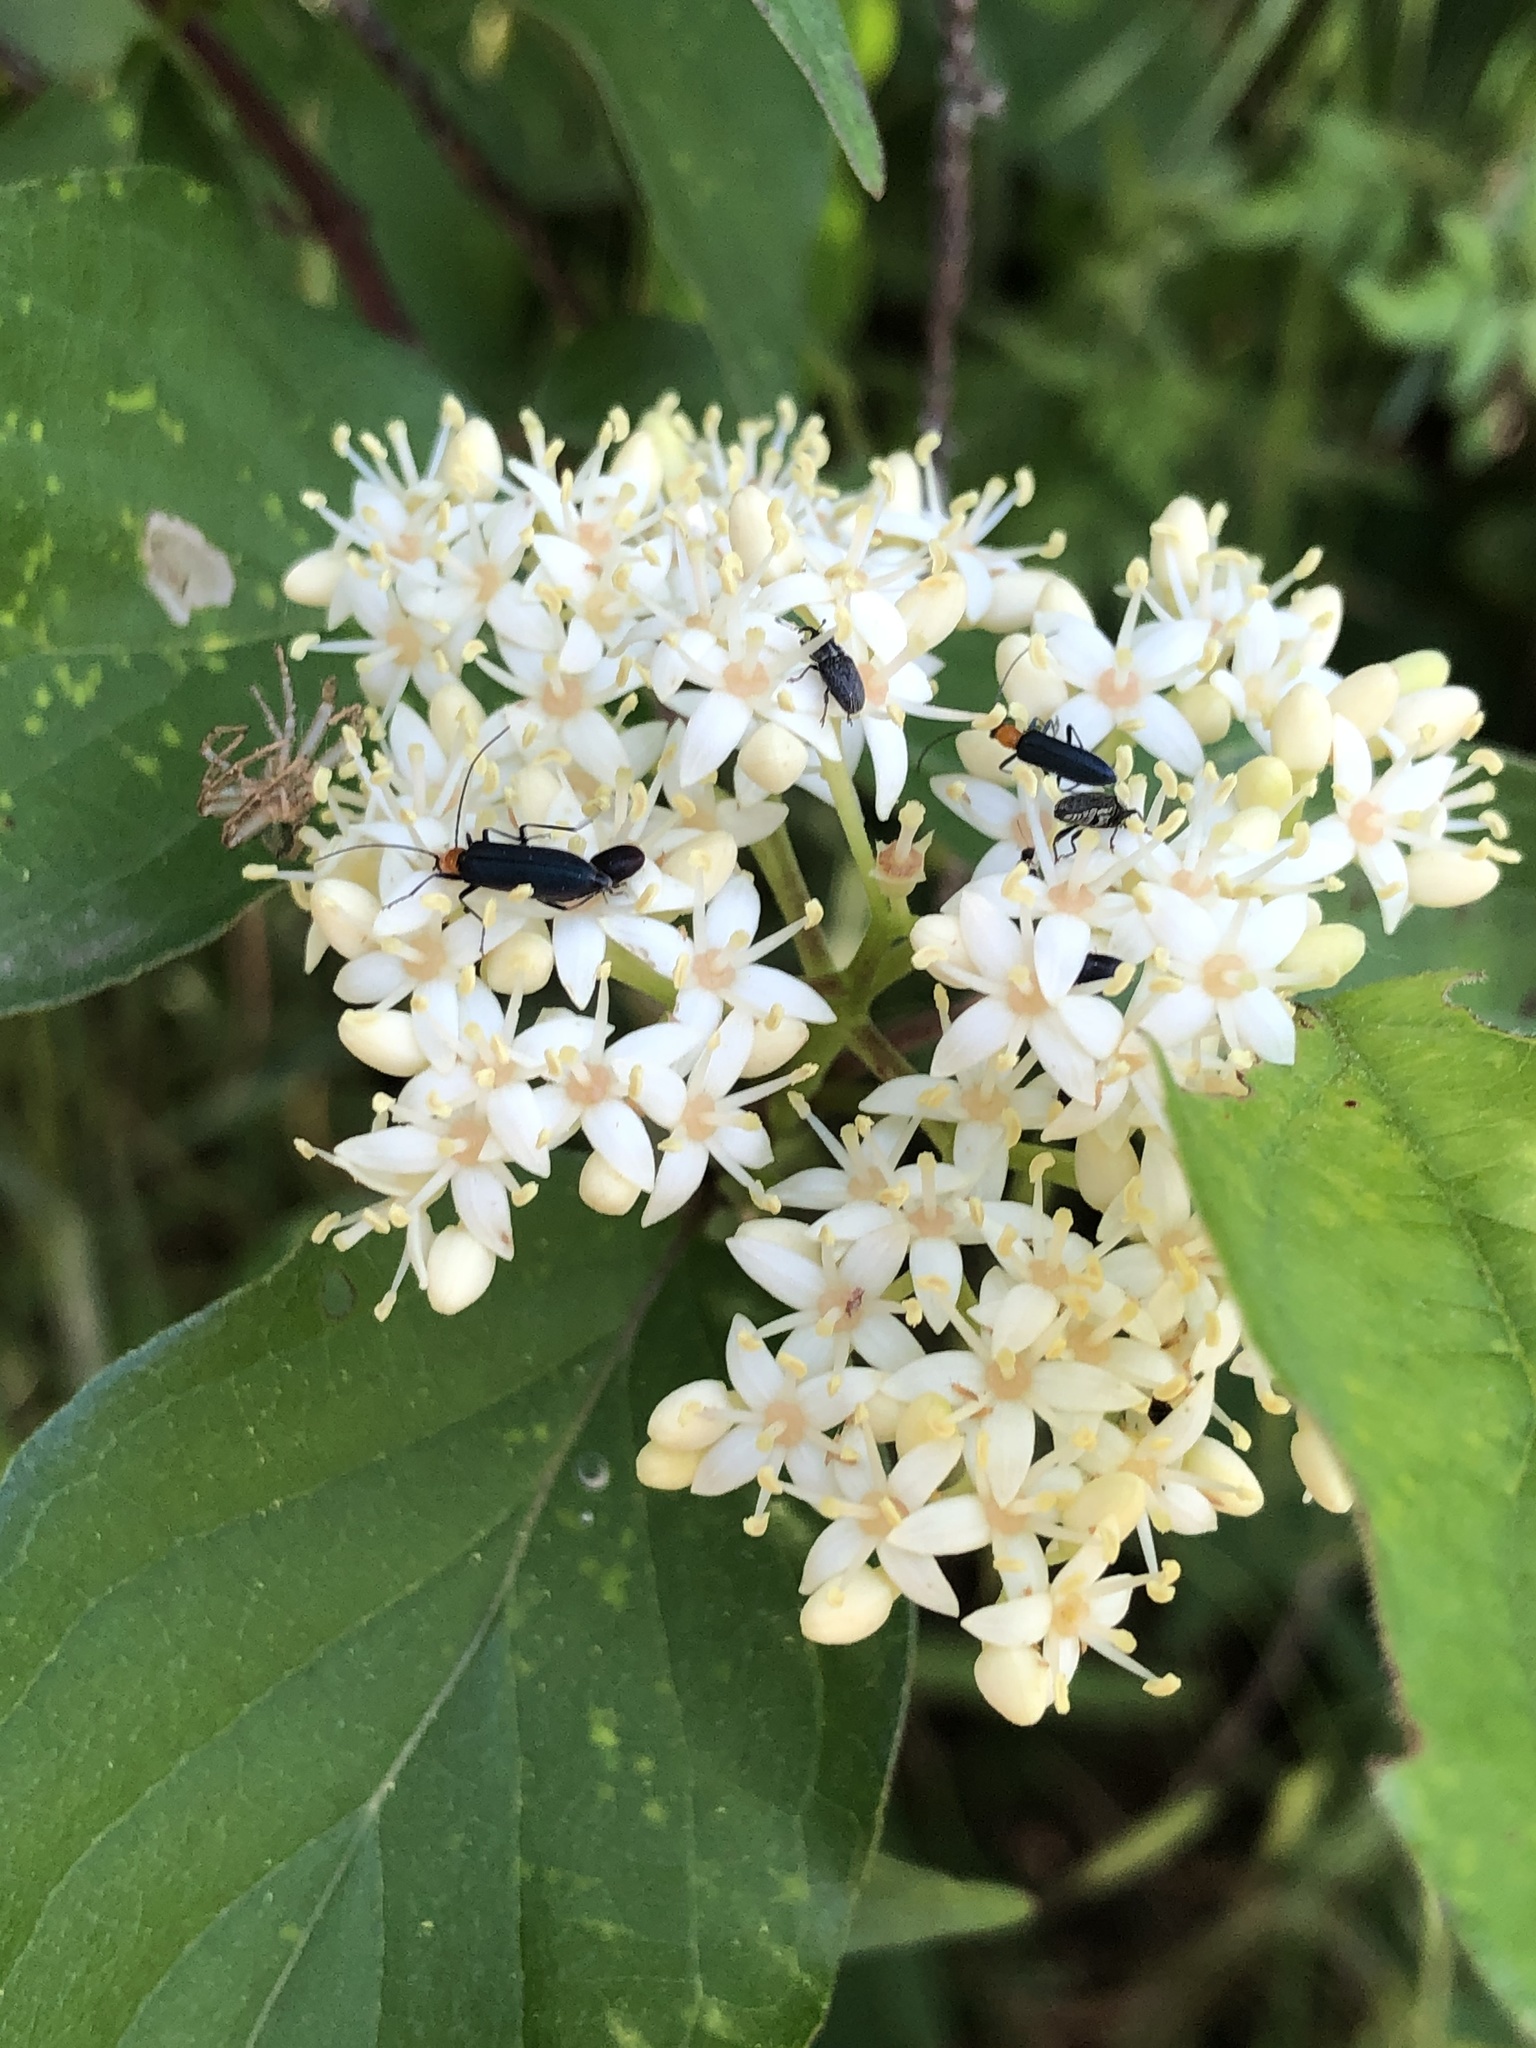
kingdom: Plantae
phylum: Tracheophyta
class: Magnoliopsida
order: Cornales
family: Cornaceae
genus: Cornus
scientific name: Cornus drummondii
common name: Rough-leaf dogwood
